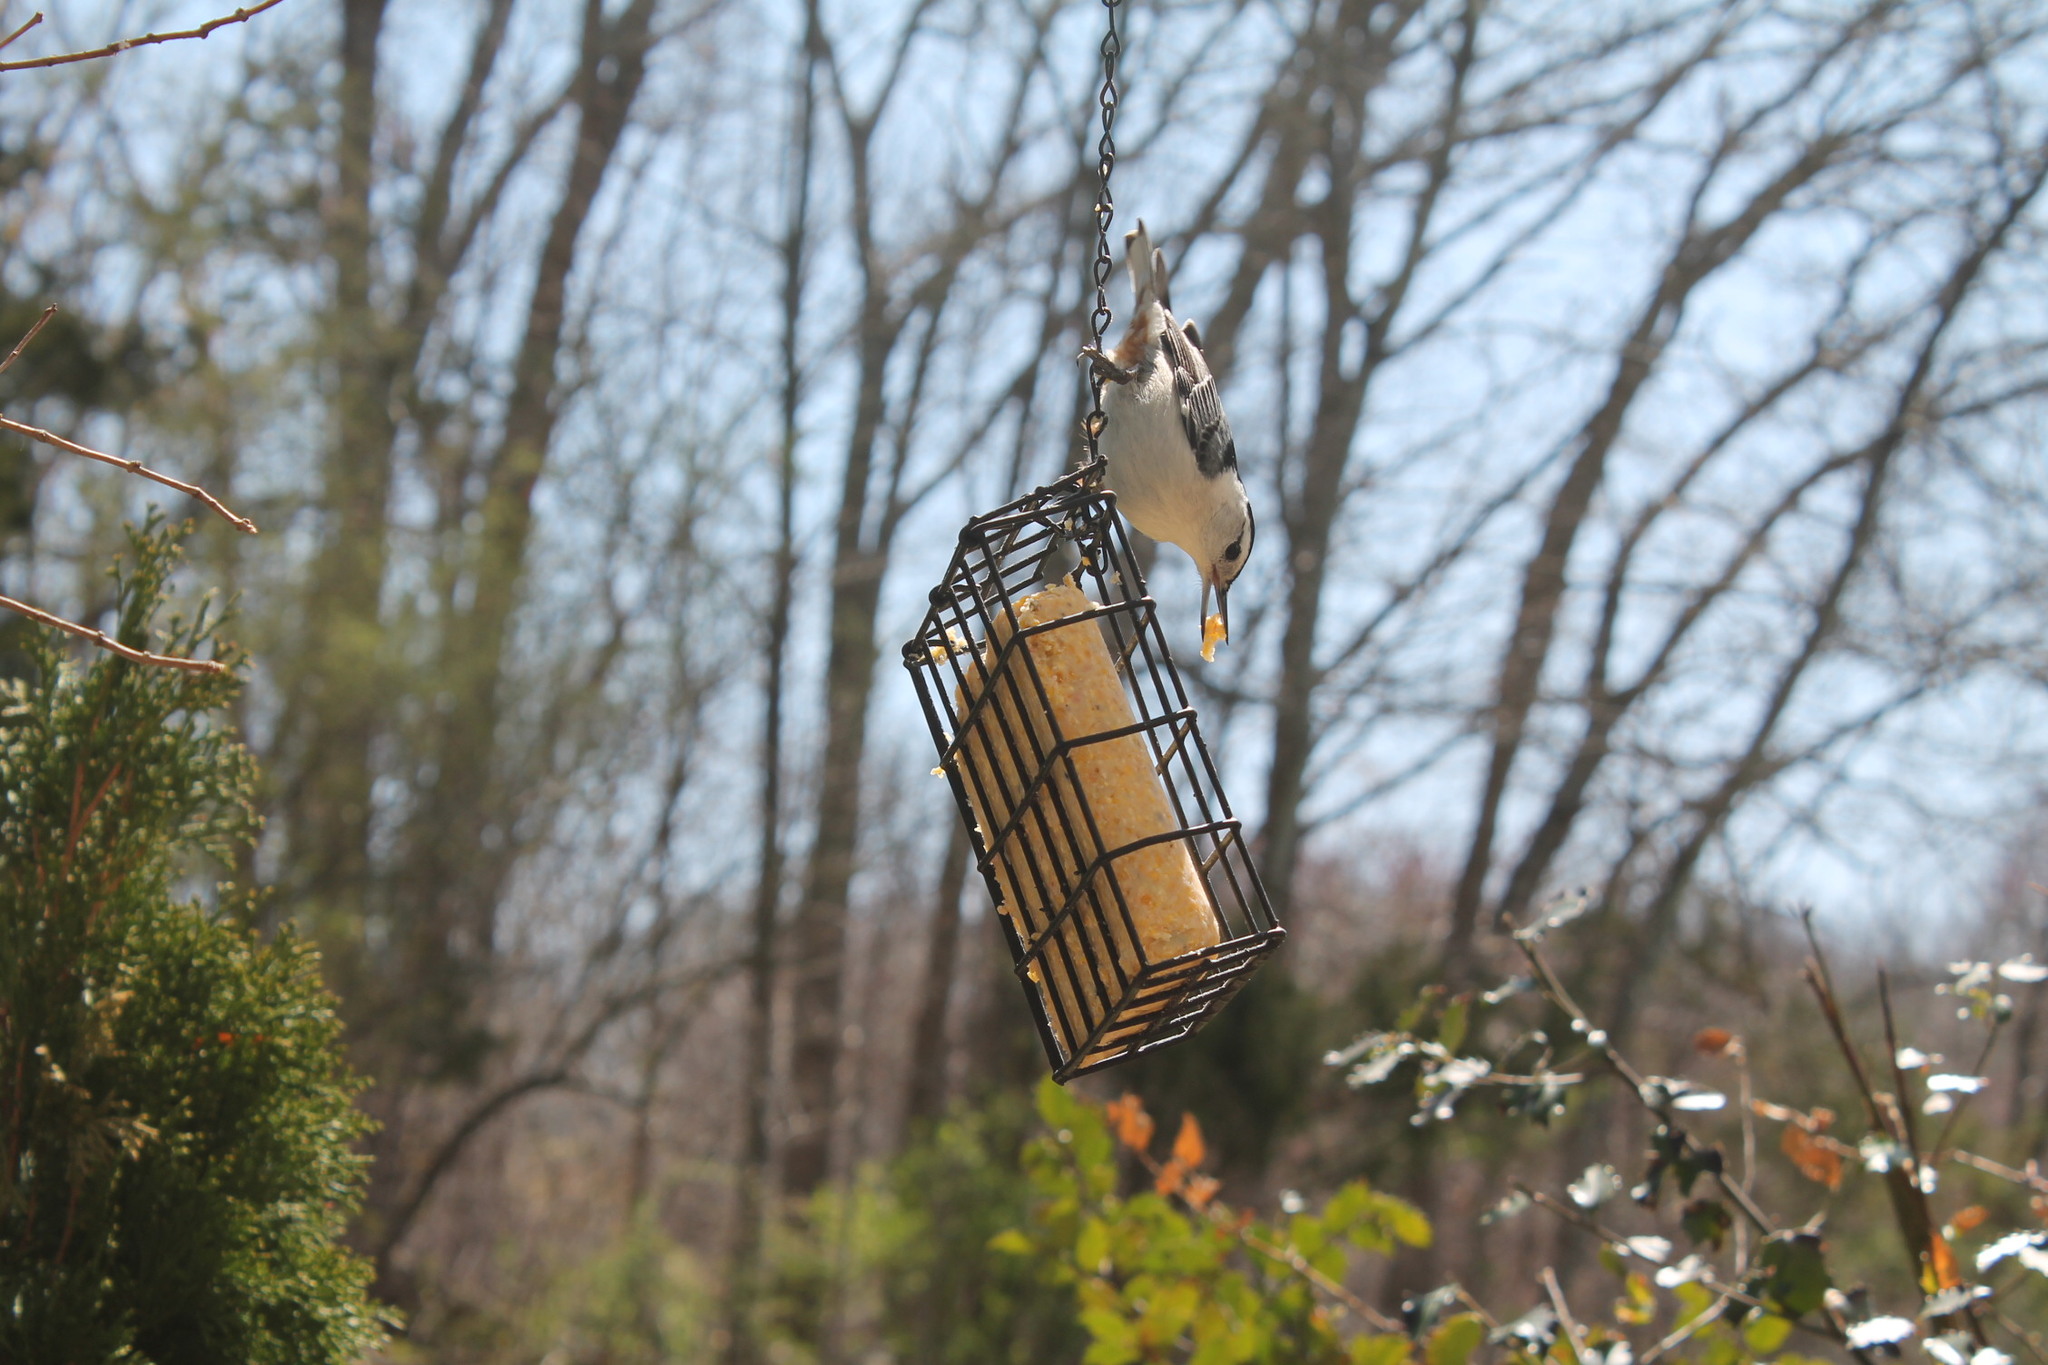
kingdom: Animalia
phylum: Chordata
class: Aves
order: Passeriformes
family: Sittidae
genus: Sitta
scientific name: Sitta carolinensis
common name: White-breasted nuthatch
